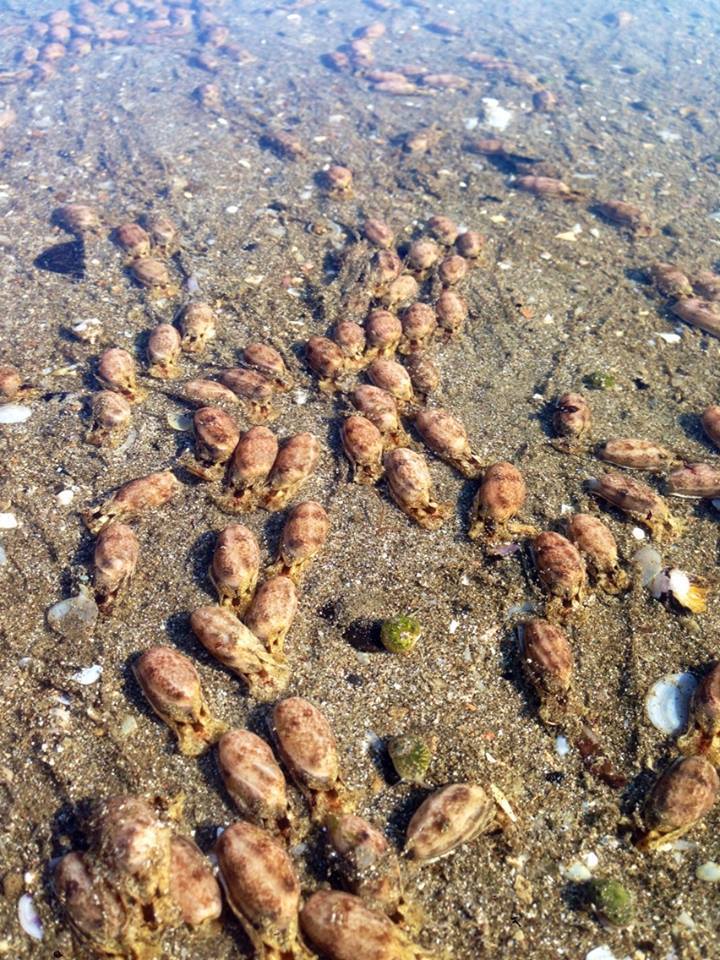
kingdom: Animalia
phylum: Mollusca
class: Gastropoda
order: Cephalaspidea
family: Bullidae
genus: Bulla
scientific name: Bulla striata
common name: Common atlantic bubble
